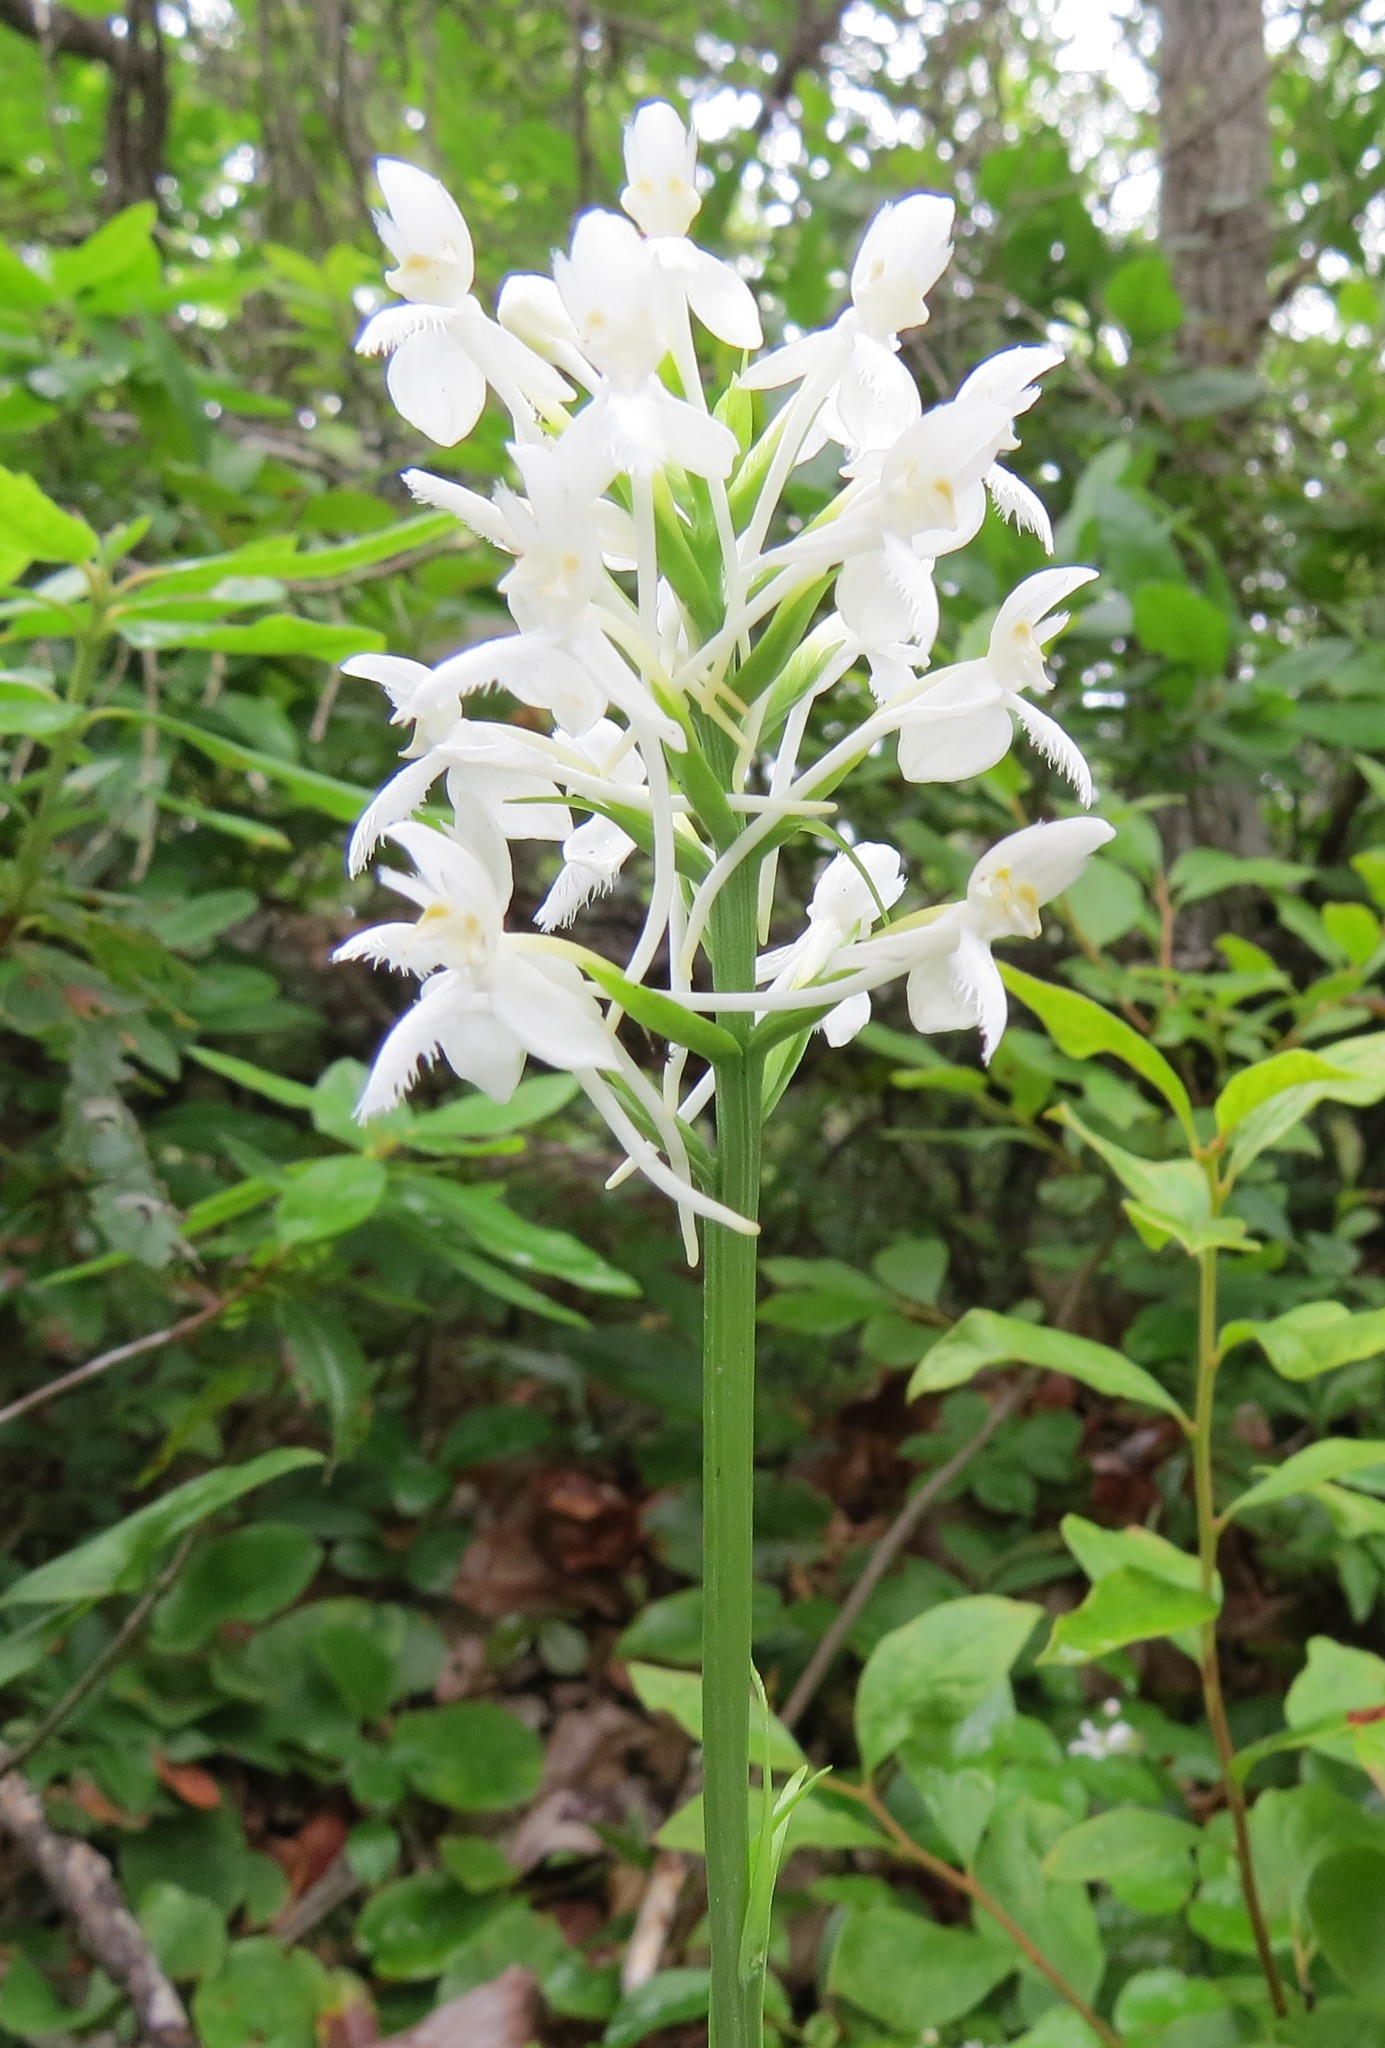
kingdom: Plantae
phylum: Tracheophyta
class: Liliopsida
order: Asparagales
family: Orchidaceae
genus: Platanthera
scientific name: Platanthera blephariglottis
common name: White fringed orchid
